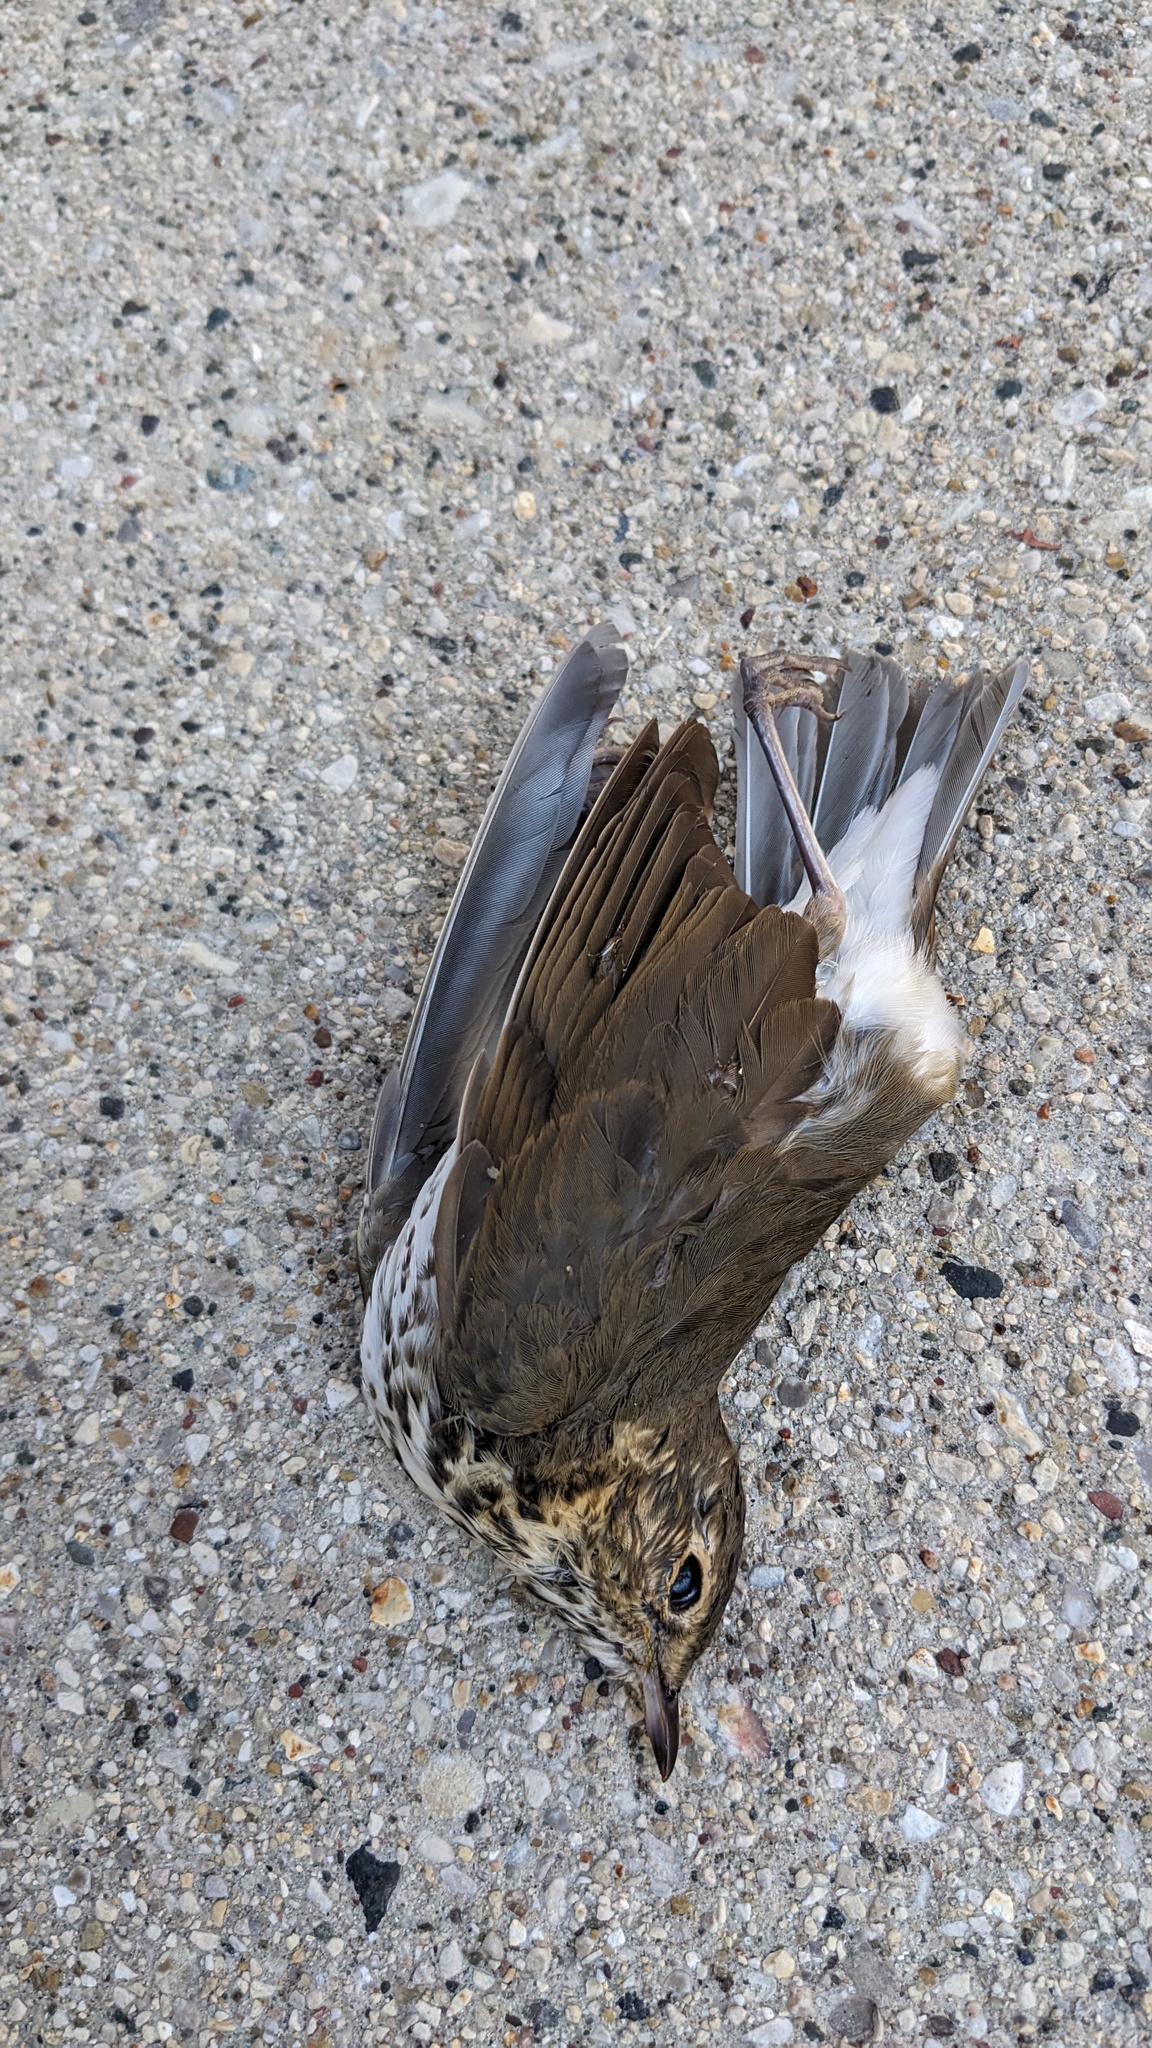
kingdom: Animalia
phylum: Chordata
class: Aves
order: Passeriformes
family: Turdidae
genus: Catharus
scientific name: Catharus ustulatus
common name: Swainson's thrush
